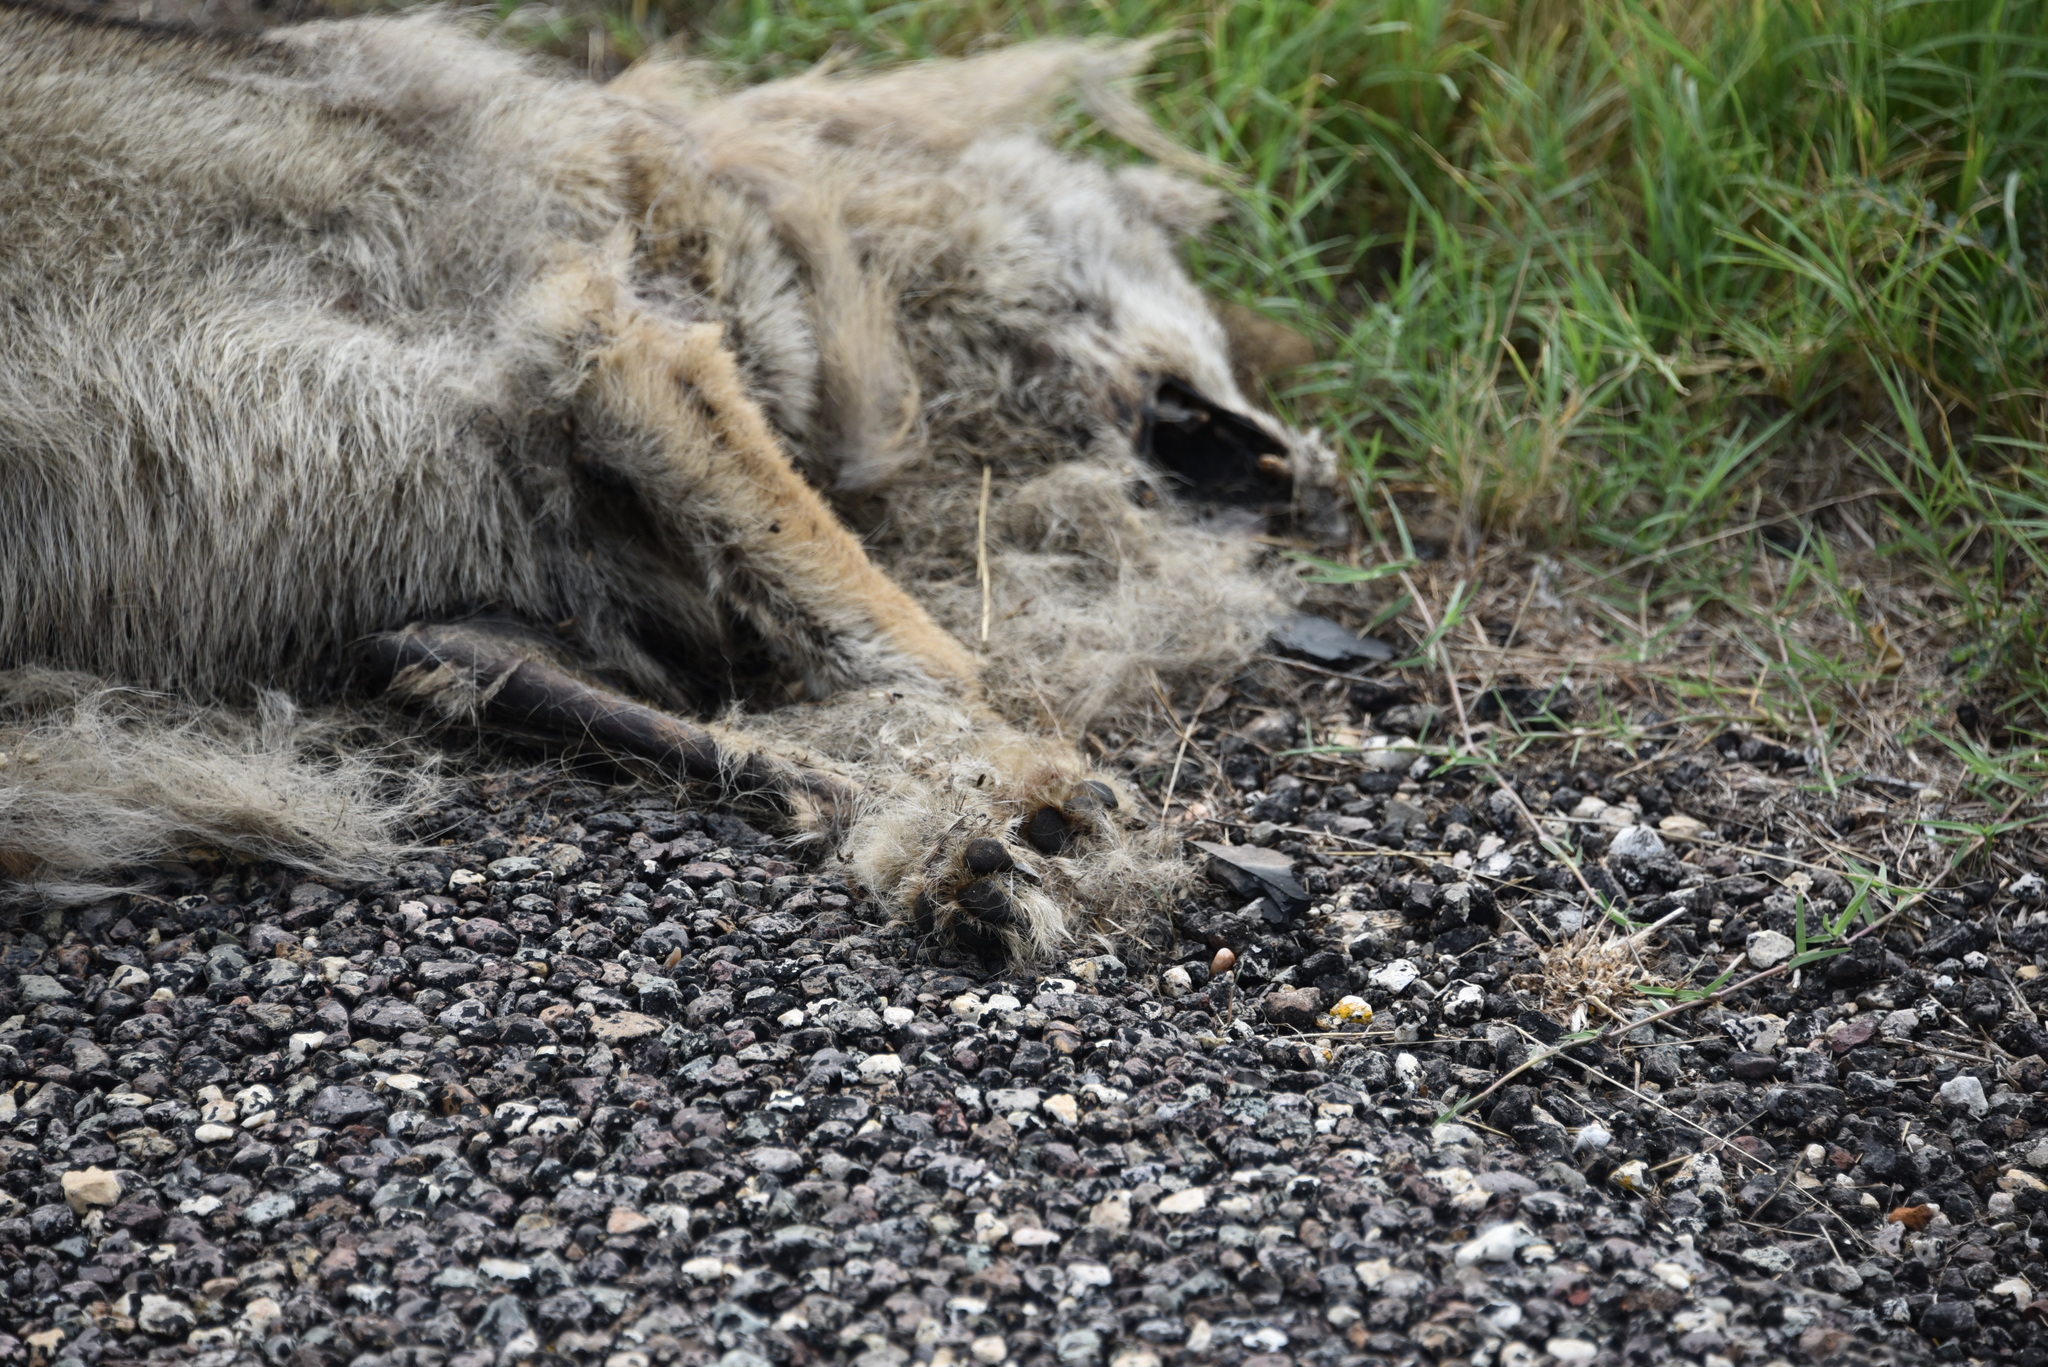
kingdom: Animalia
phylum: Chordata
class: Mammalia
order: Carnivora
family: Canidae
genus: Canis
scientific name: Canis latrans
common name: Coyote
